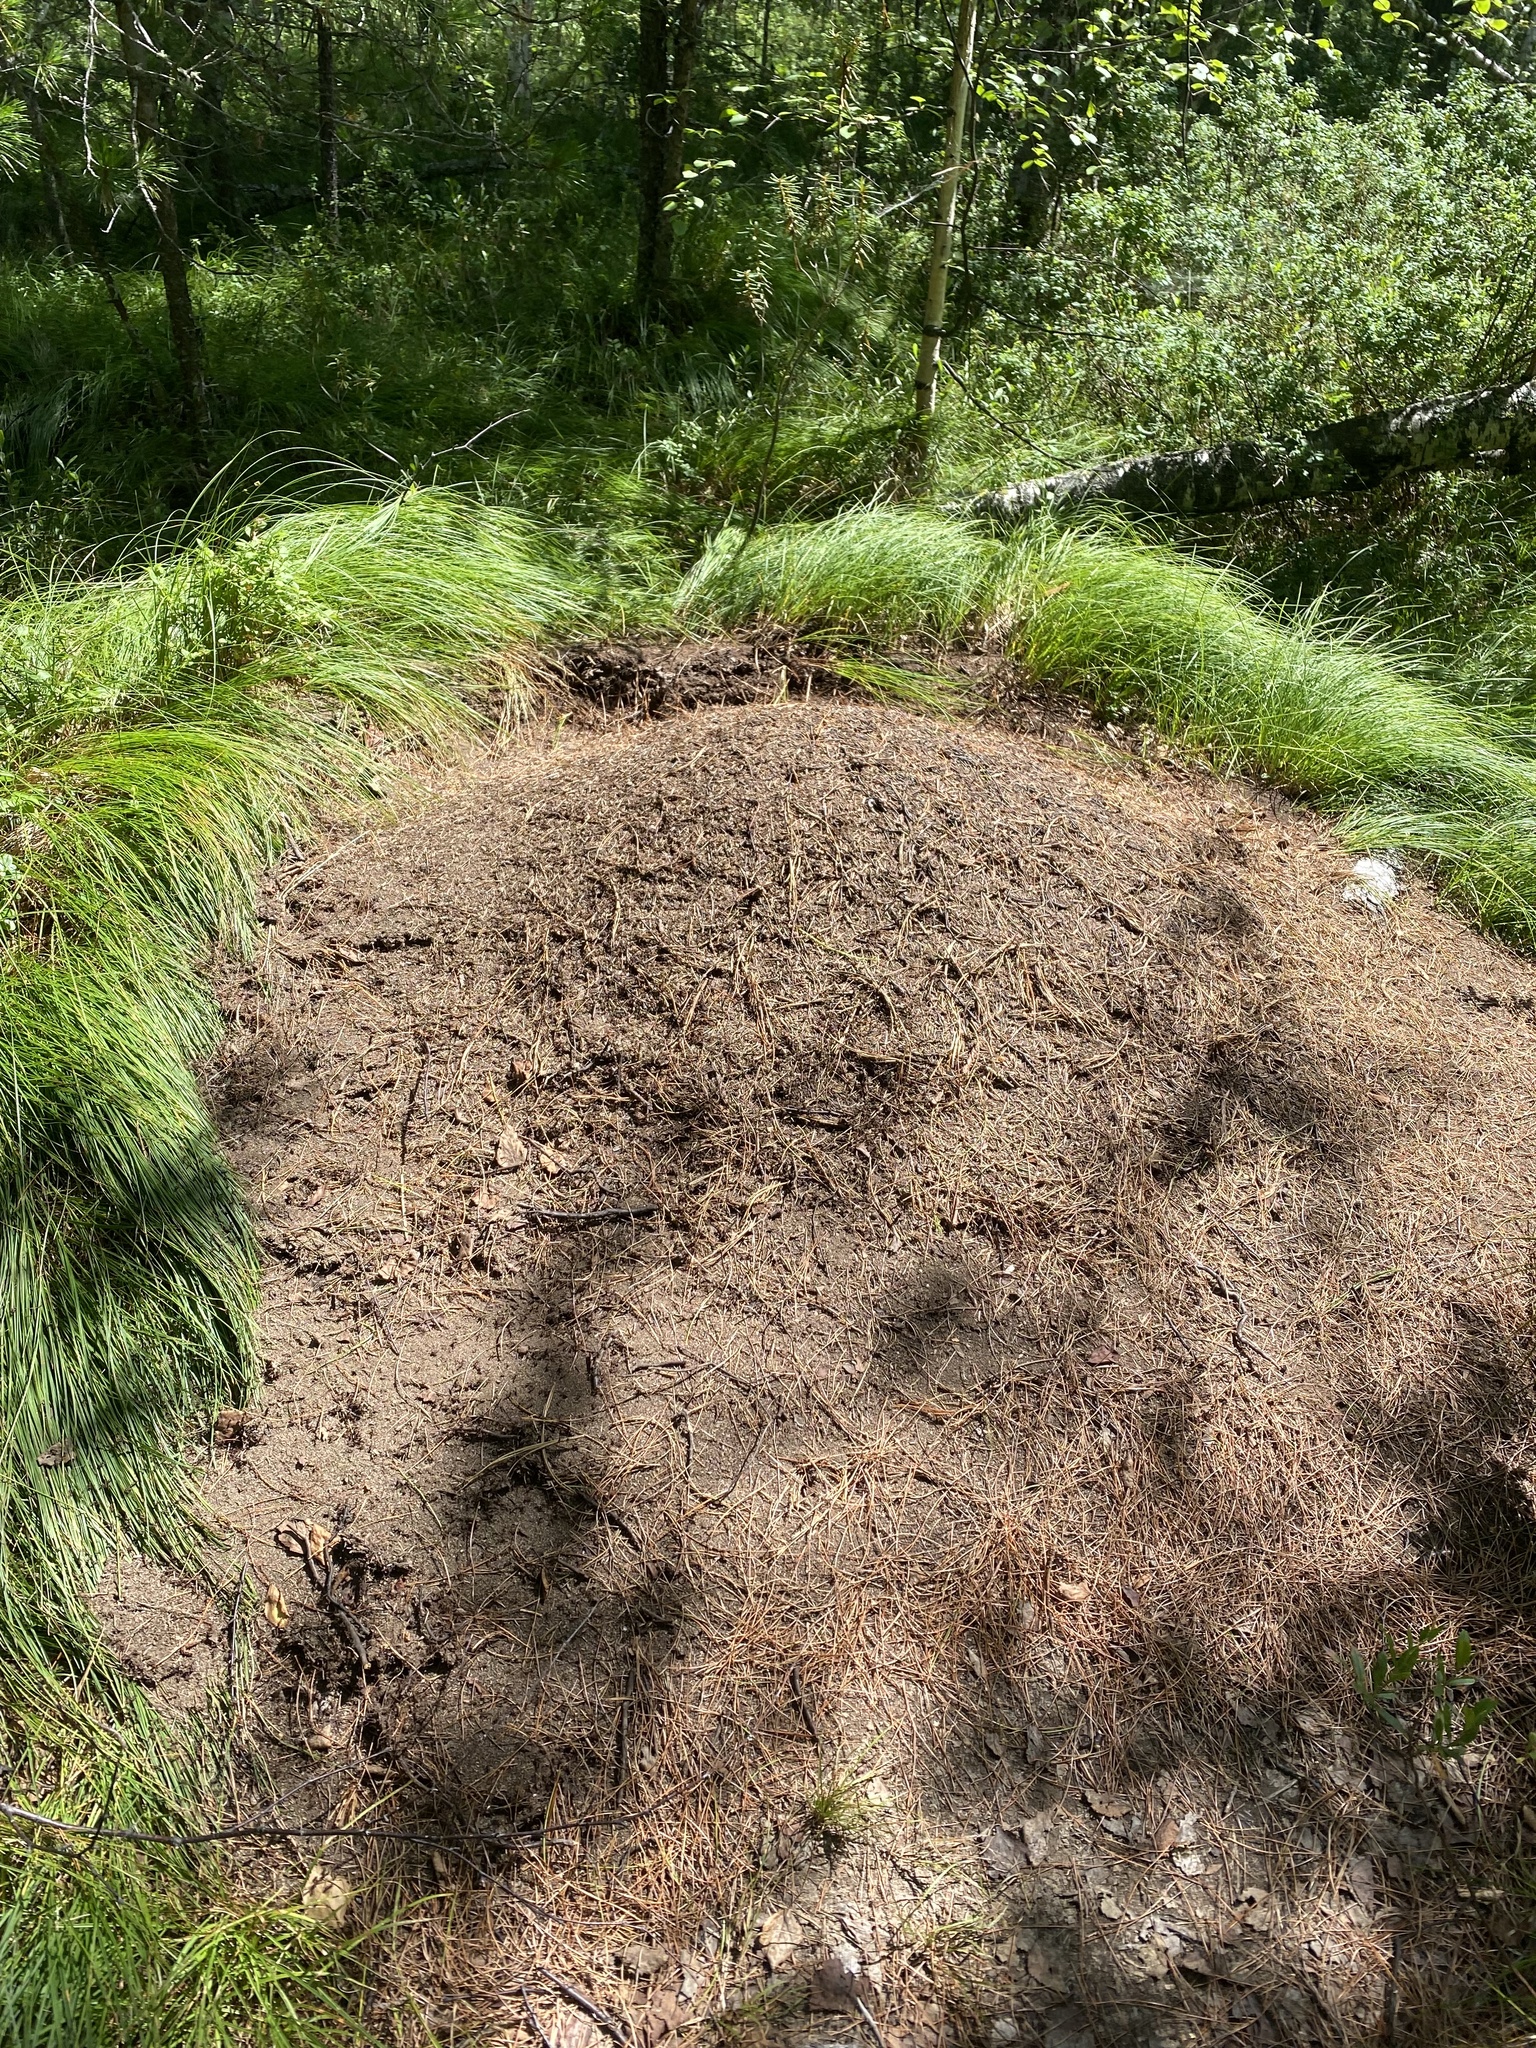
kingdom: Animalia
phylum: Arthropoda
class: Insecta
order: Hymenoptera
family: Formicidae
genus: Formica
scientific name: Formica
